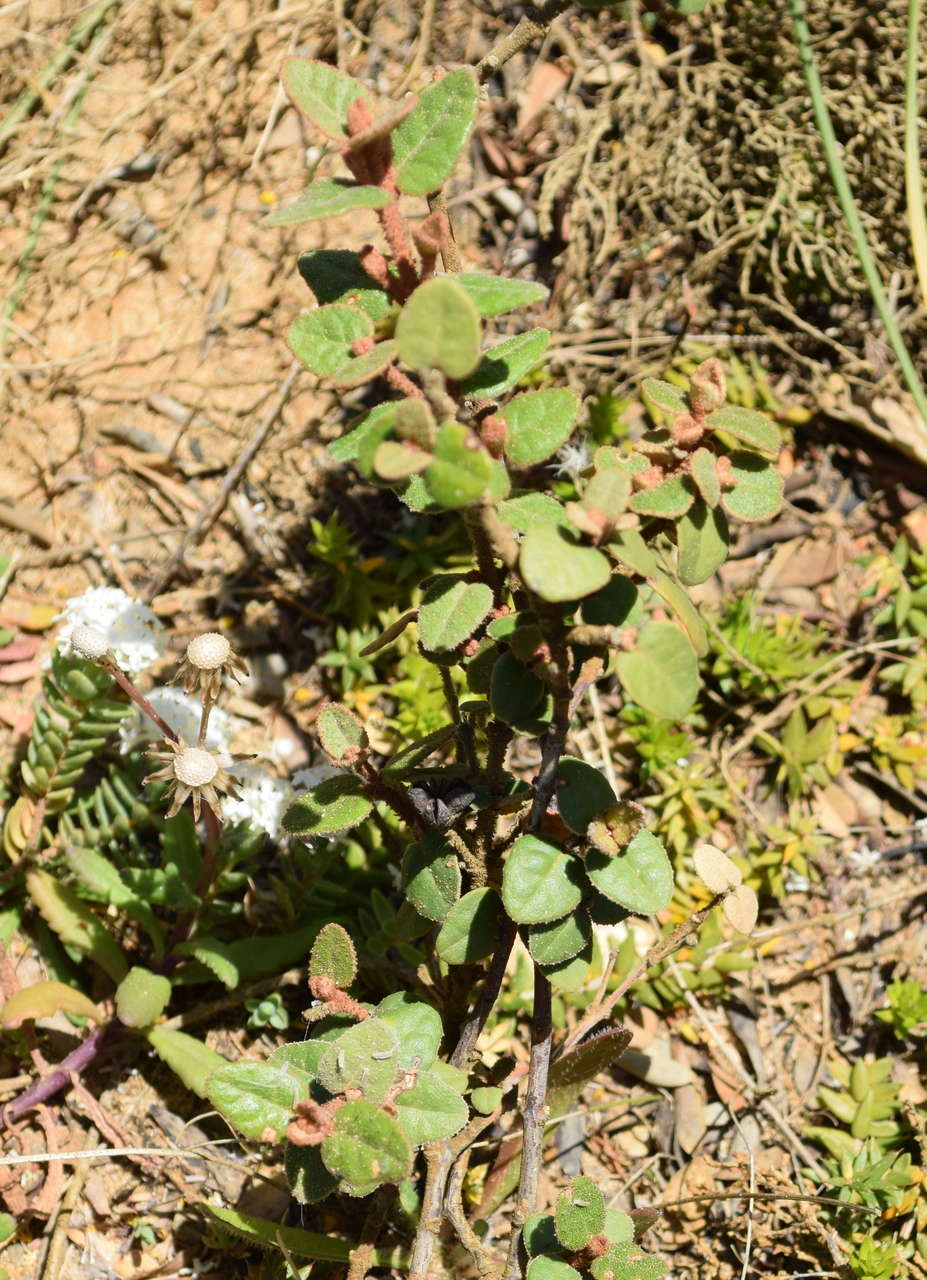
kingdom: Plantae
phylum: Tracheophyta
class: Magnoliopsida
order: Sapindales
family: Rutaceae
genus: Correa
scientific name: Correa reflexa
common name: Common correa
